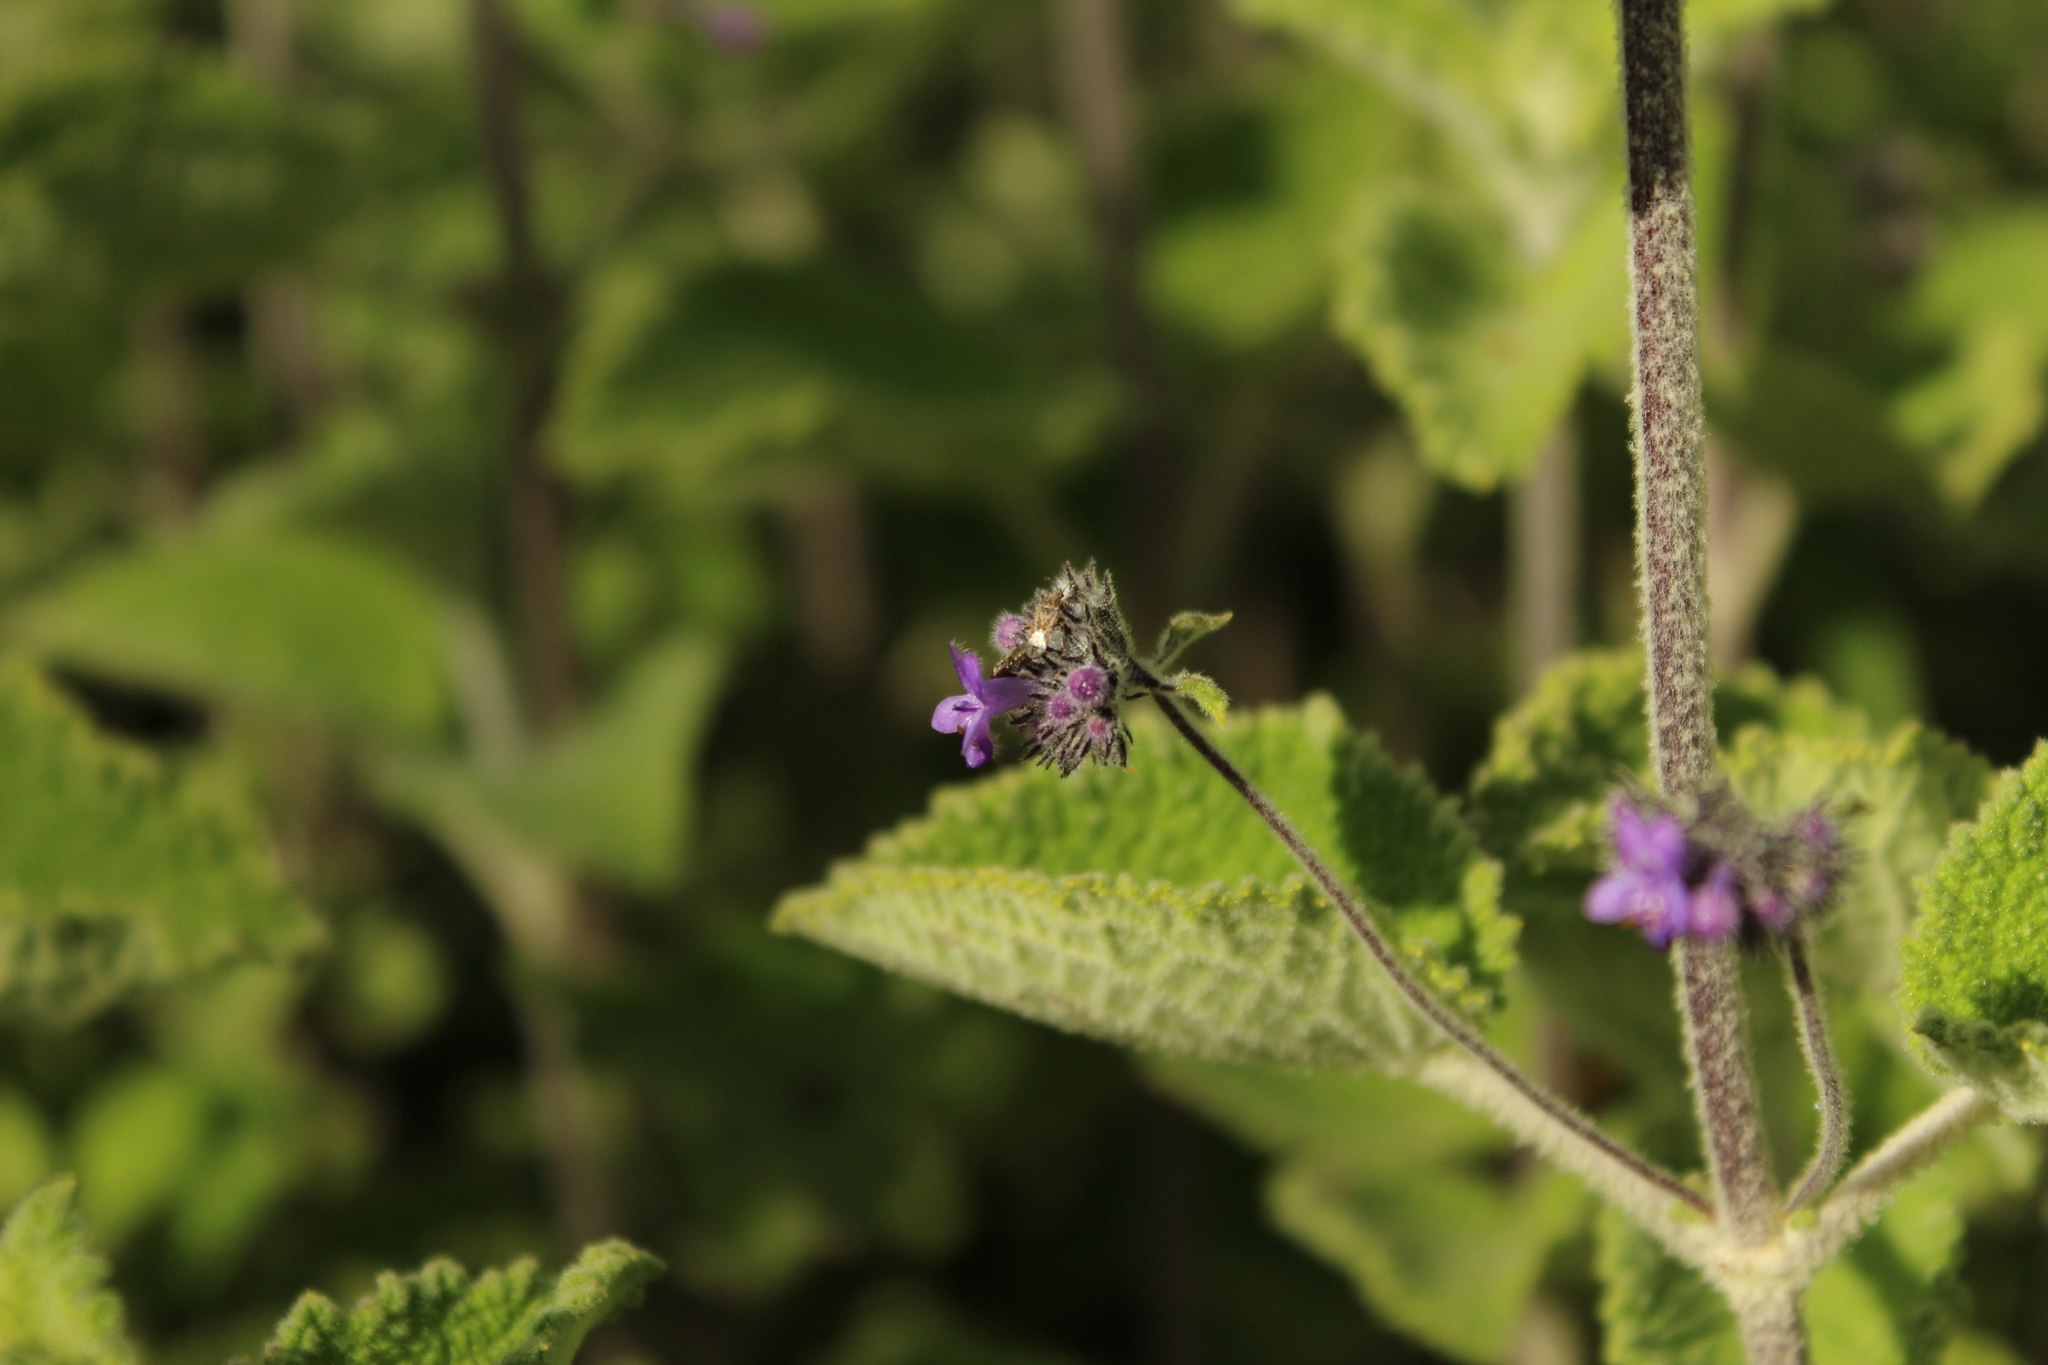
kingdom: Plantae
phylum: Tracheophyta
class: Magnoliopsida
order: Lamiales
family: Lamiaceae
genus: Mesosphaerum
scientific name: Mesosphaerum perbullatum
